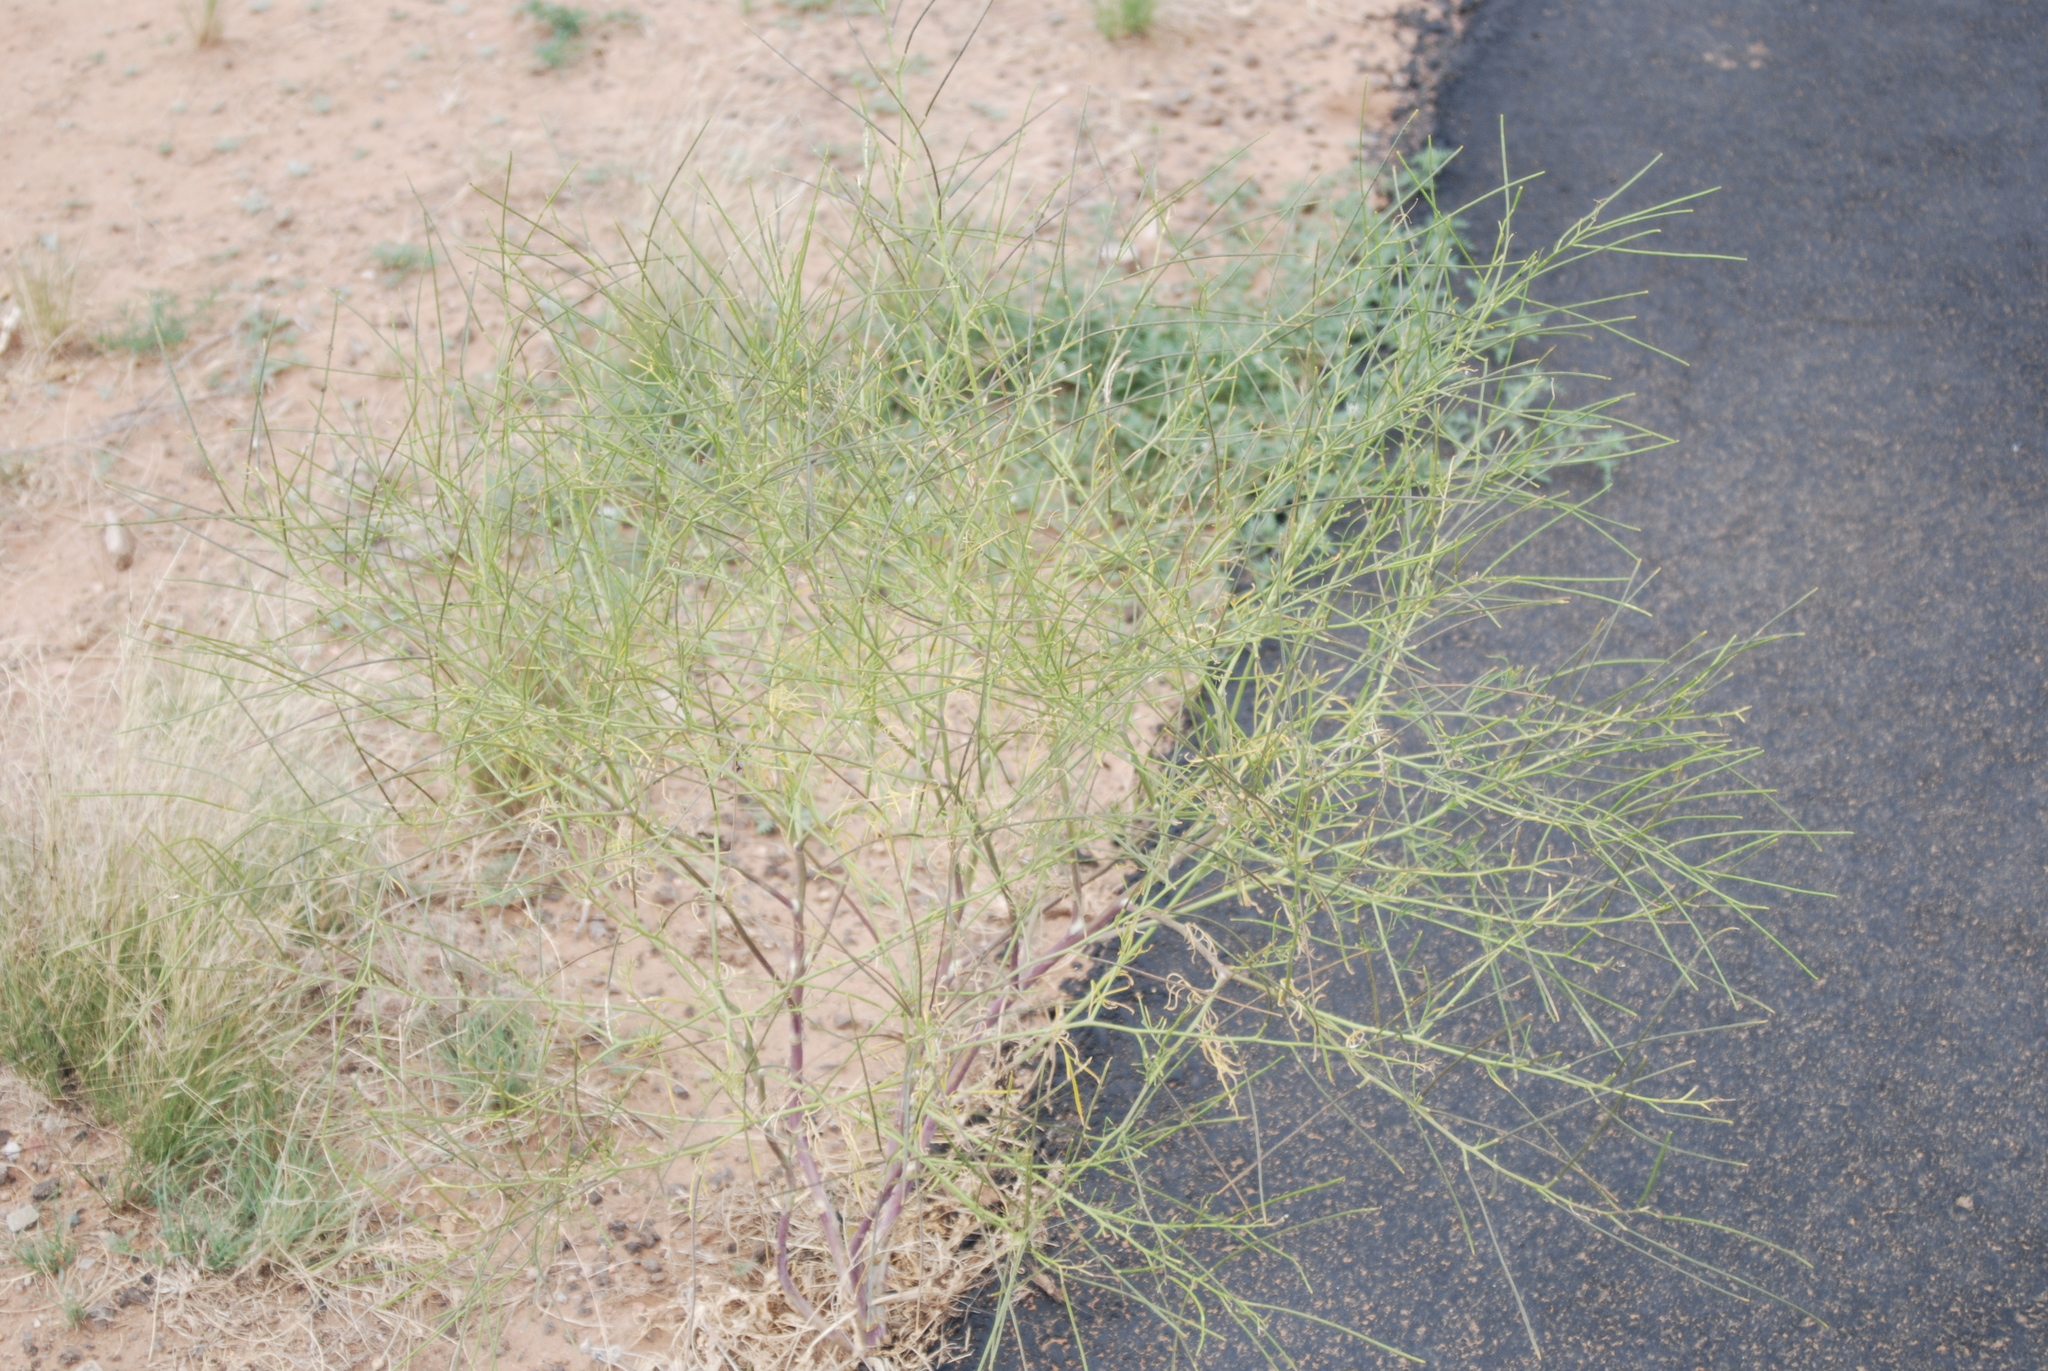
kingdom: Plantae
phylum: Tracheophyta
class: Magnoliopsida
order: Brassicales
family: Brassicaceae
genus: Sisymbrium
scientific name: Sisymbrium altissimum
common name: Tall rocket
